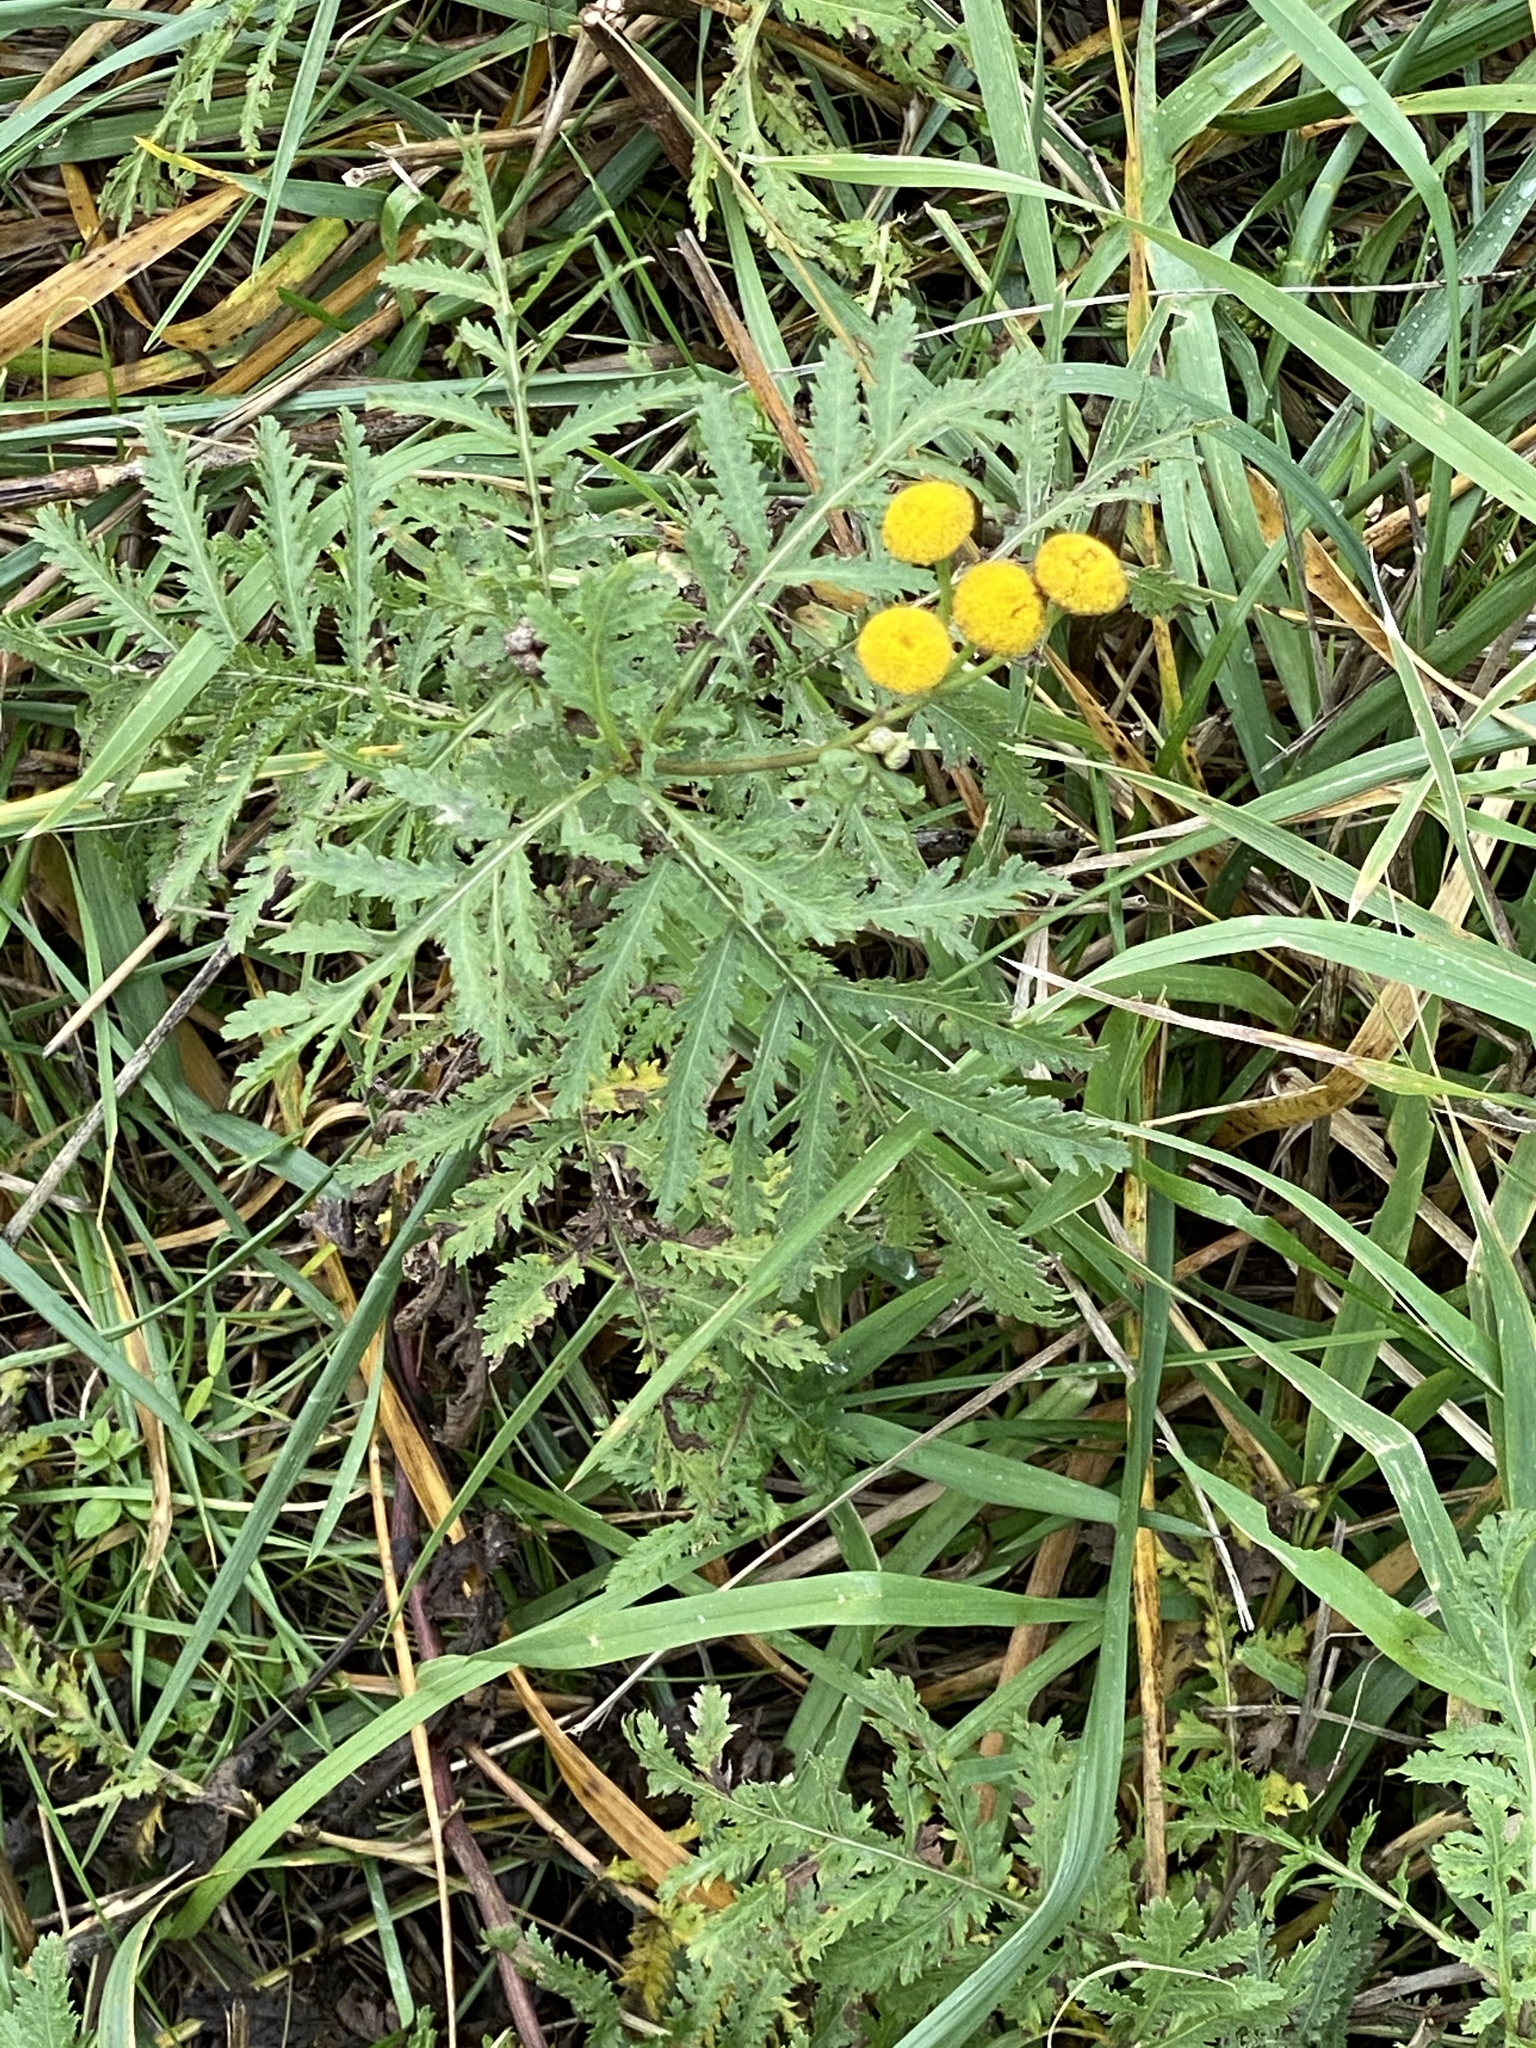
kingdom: Plantae
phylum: Tracheophyta
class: Magnoliopsida
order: Asterales
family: Asteraceae
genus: Tanacetum
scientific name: Tanacetum vulgare
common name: Common tansy
